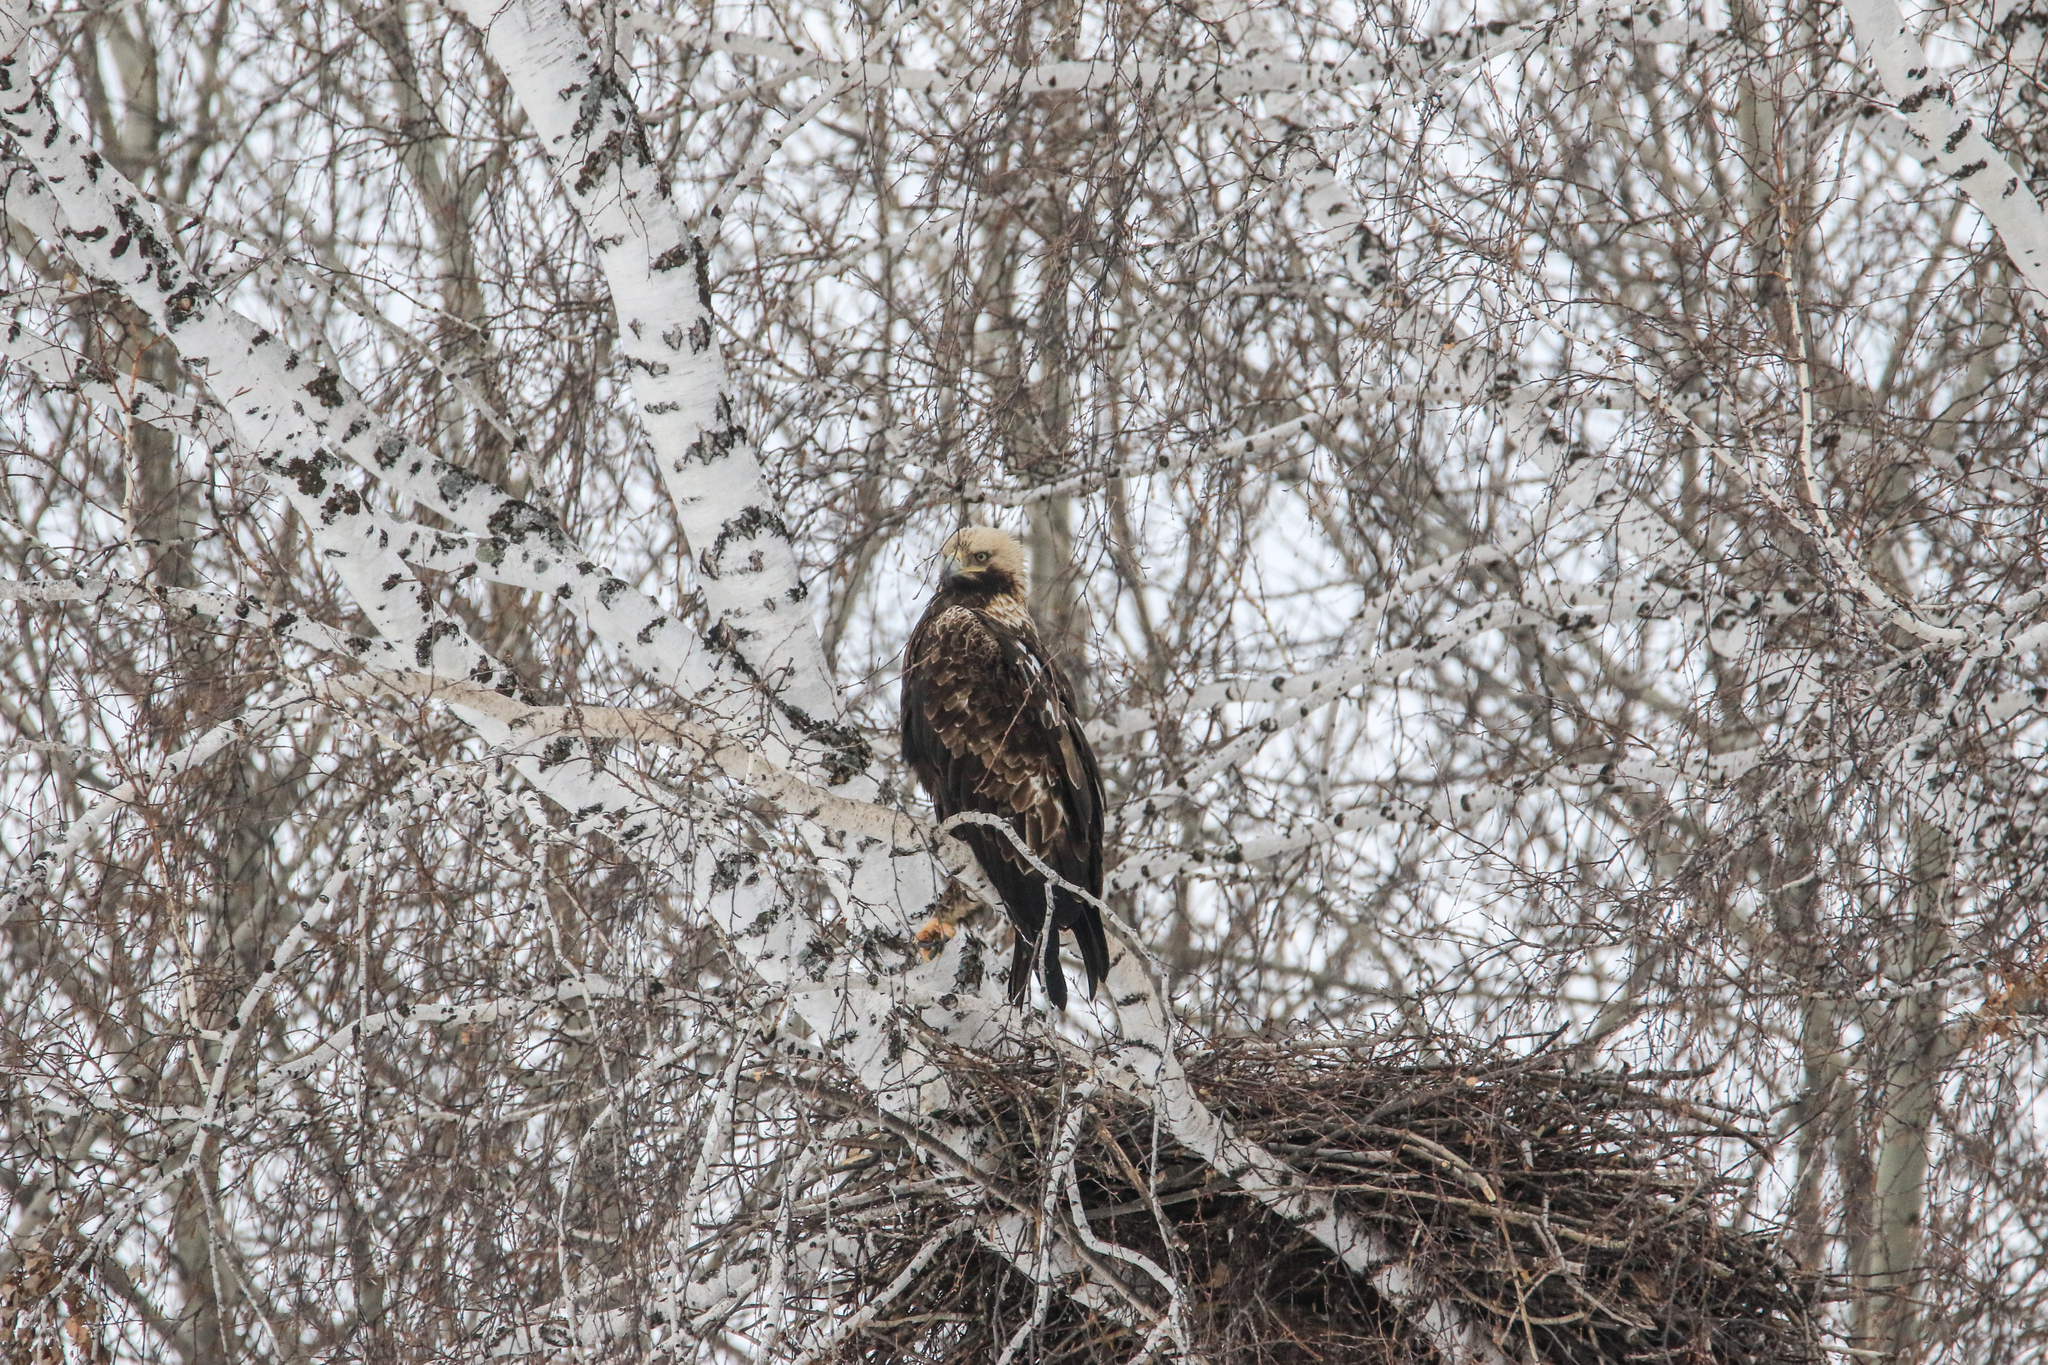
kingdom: Animalia
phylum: Chordata
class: Aves
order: Accipitriformes
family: Accipitridae
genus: Aquila
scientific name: Aquila heliaca
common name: Eastern imperial eagle
